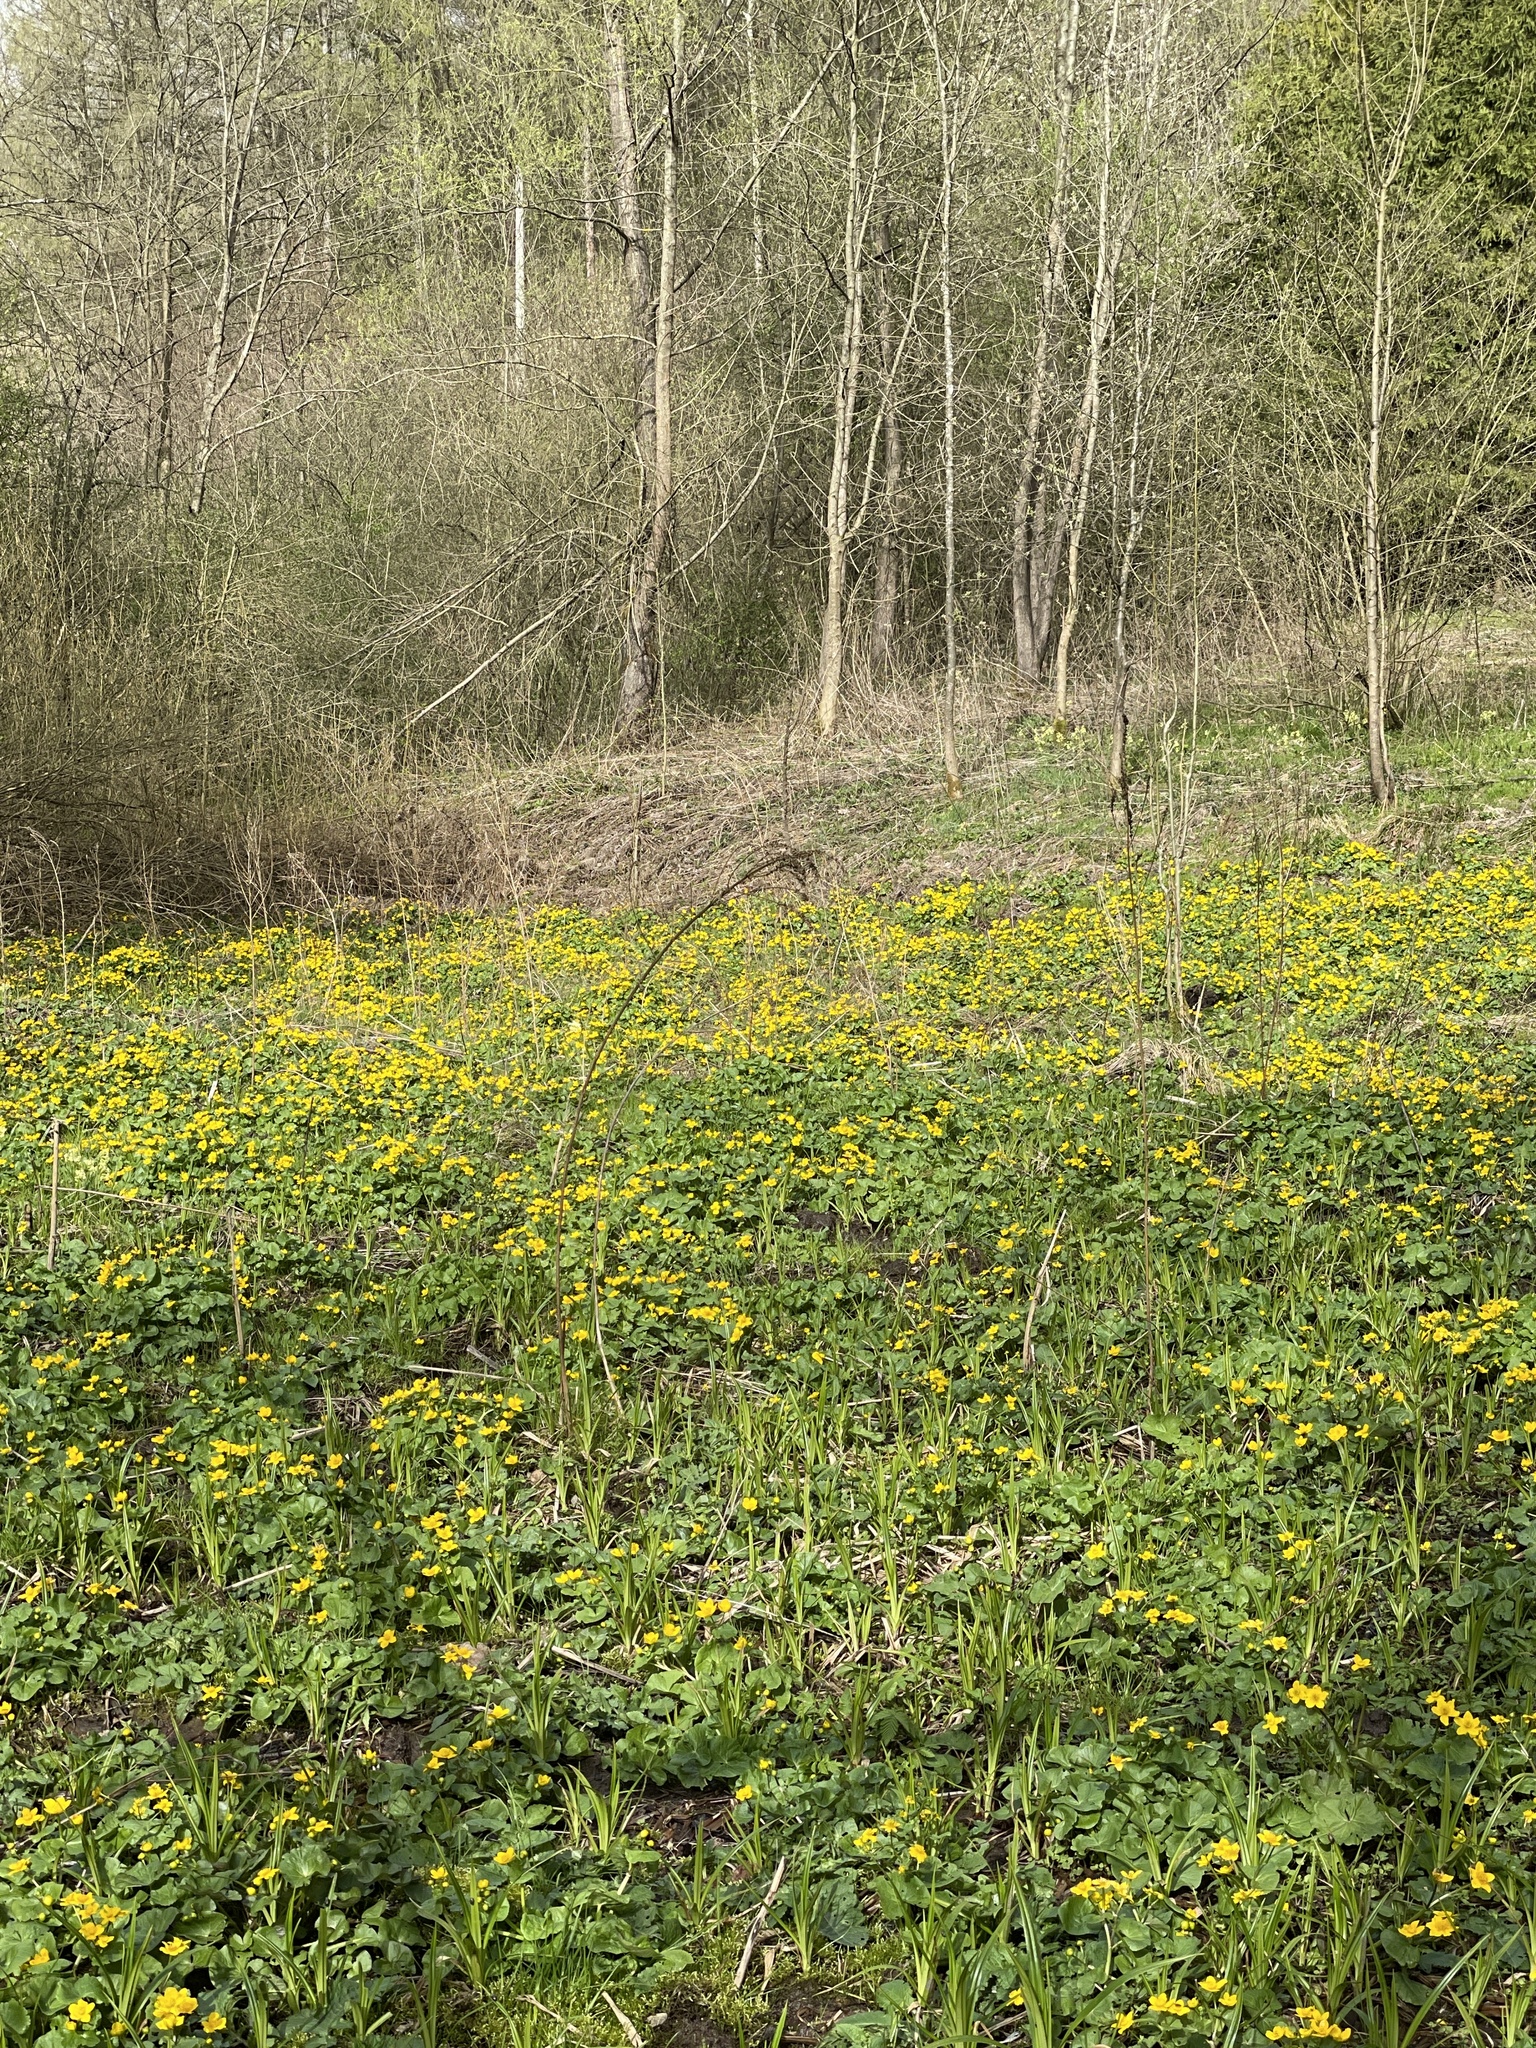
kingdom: Plantae
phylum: Tracheophyta
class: Magnoliopsida
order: Ranunculales
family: Ranunculaceae
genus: Caltha
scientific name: Caltha palustris
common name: Marsh marigold
